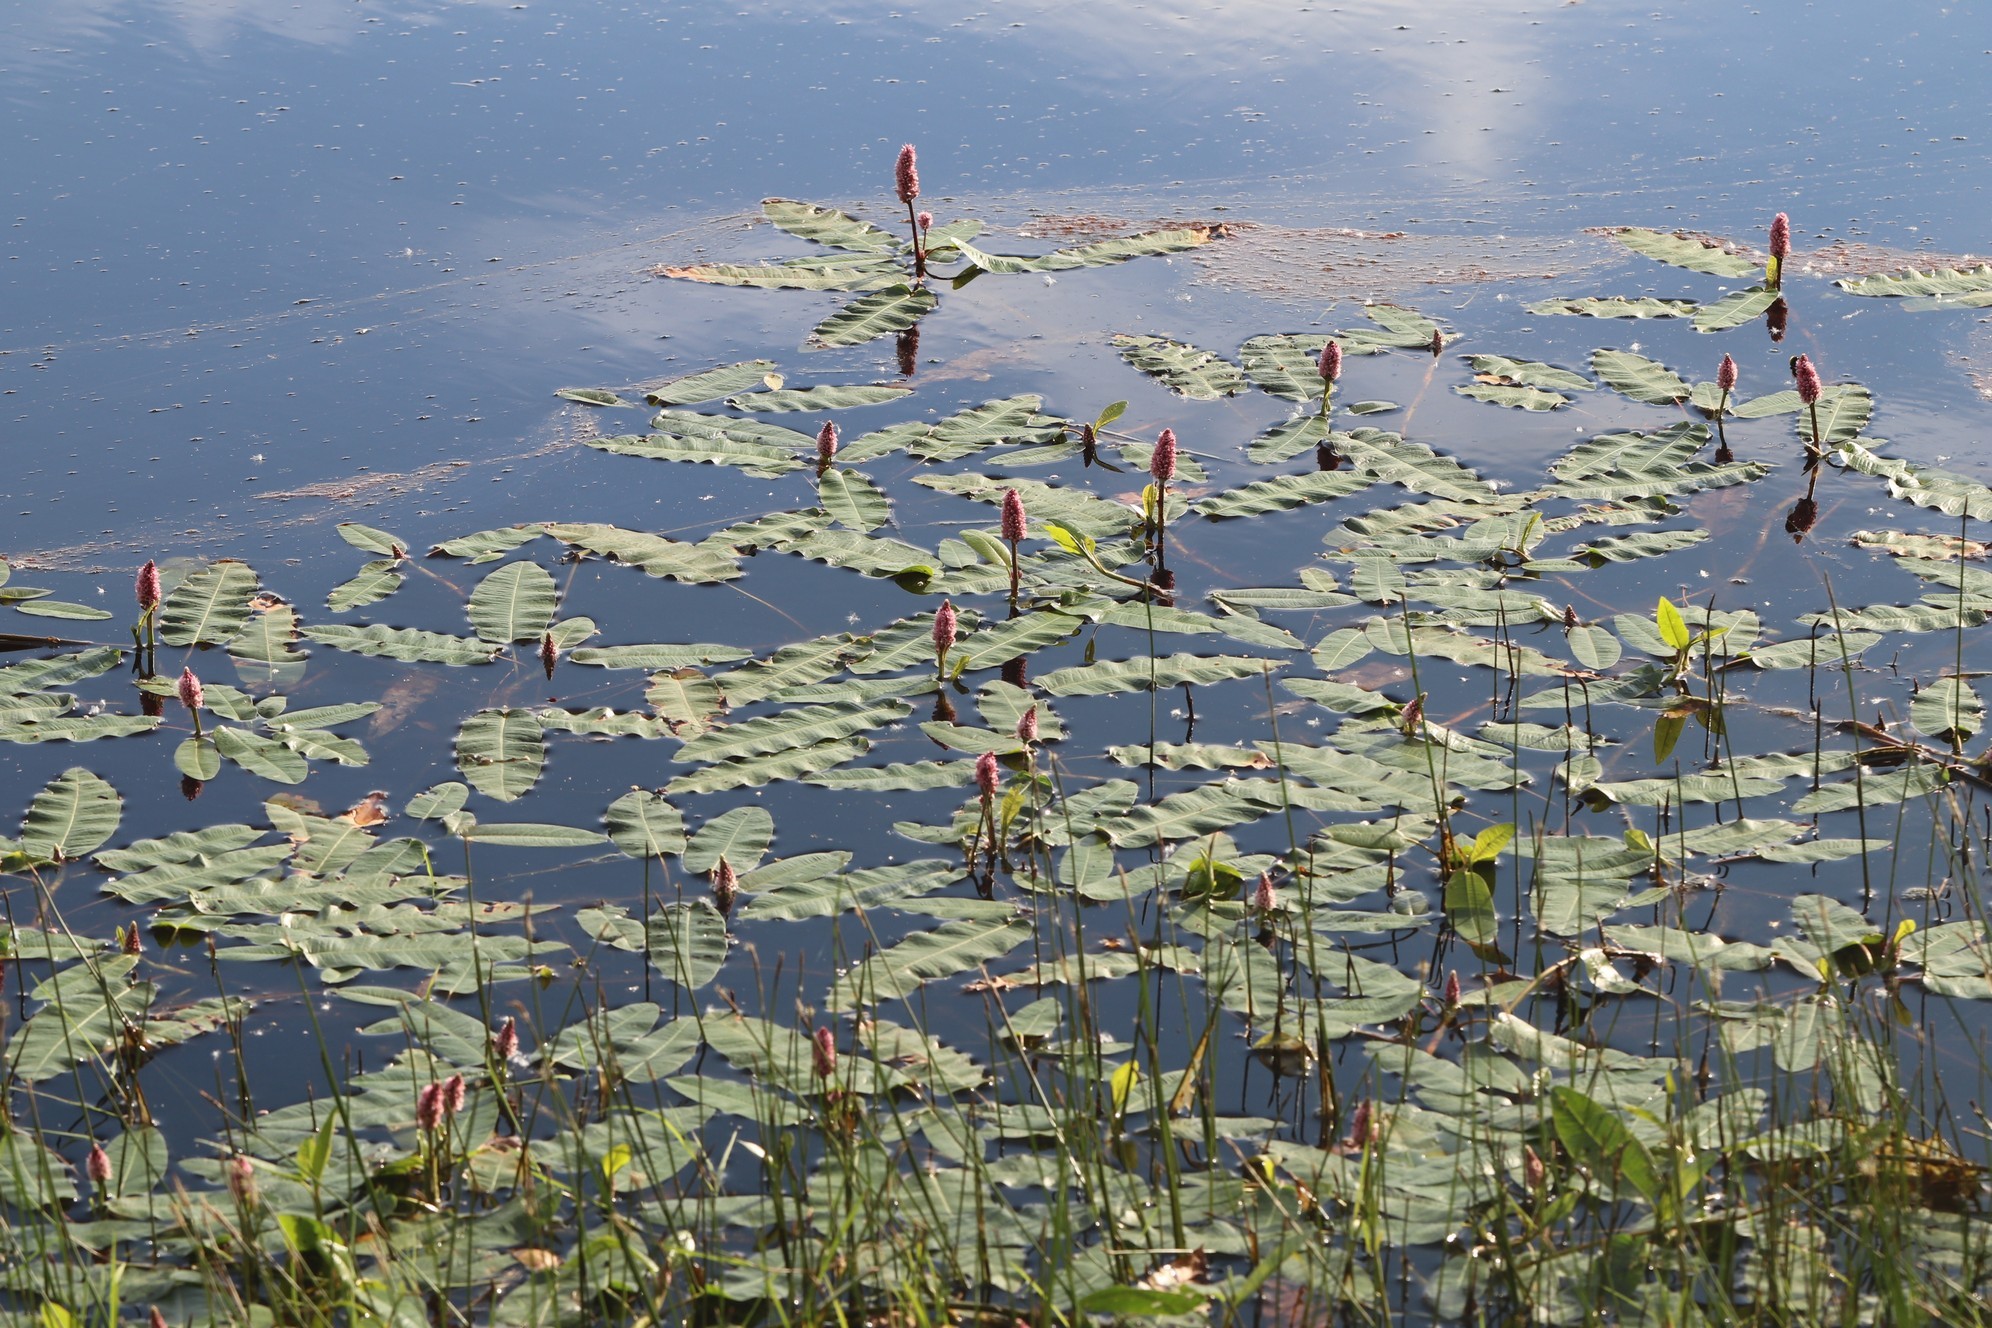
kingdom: Plantae
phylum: Tracheophyta
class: Magnoliopsida
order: Caryophyllales
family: Polygonaceae
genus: Persicaria
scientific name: Persicaria amphibia
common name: Amphibious bistort
